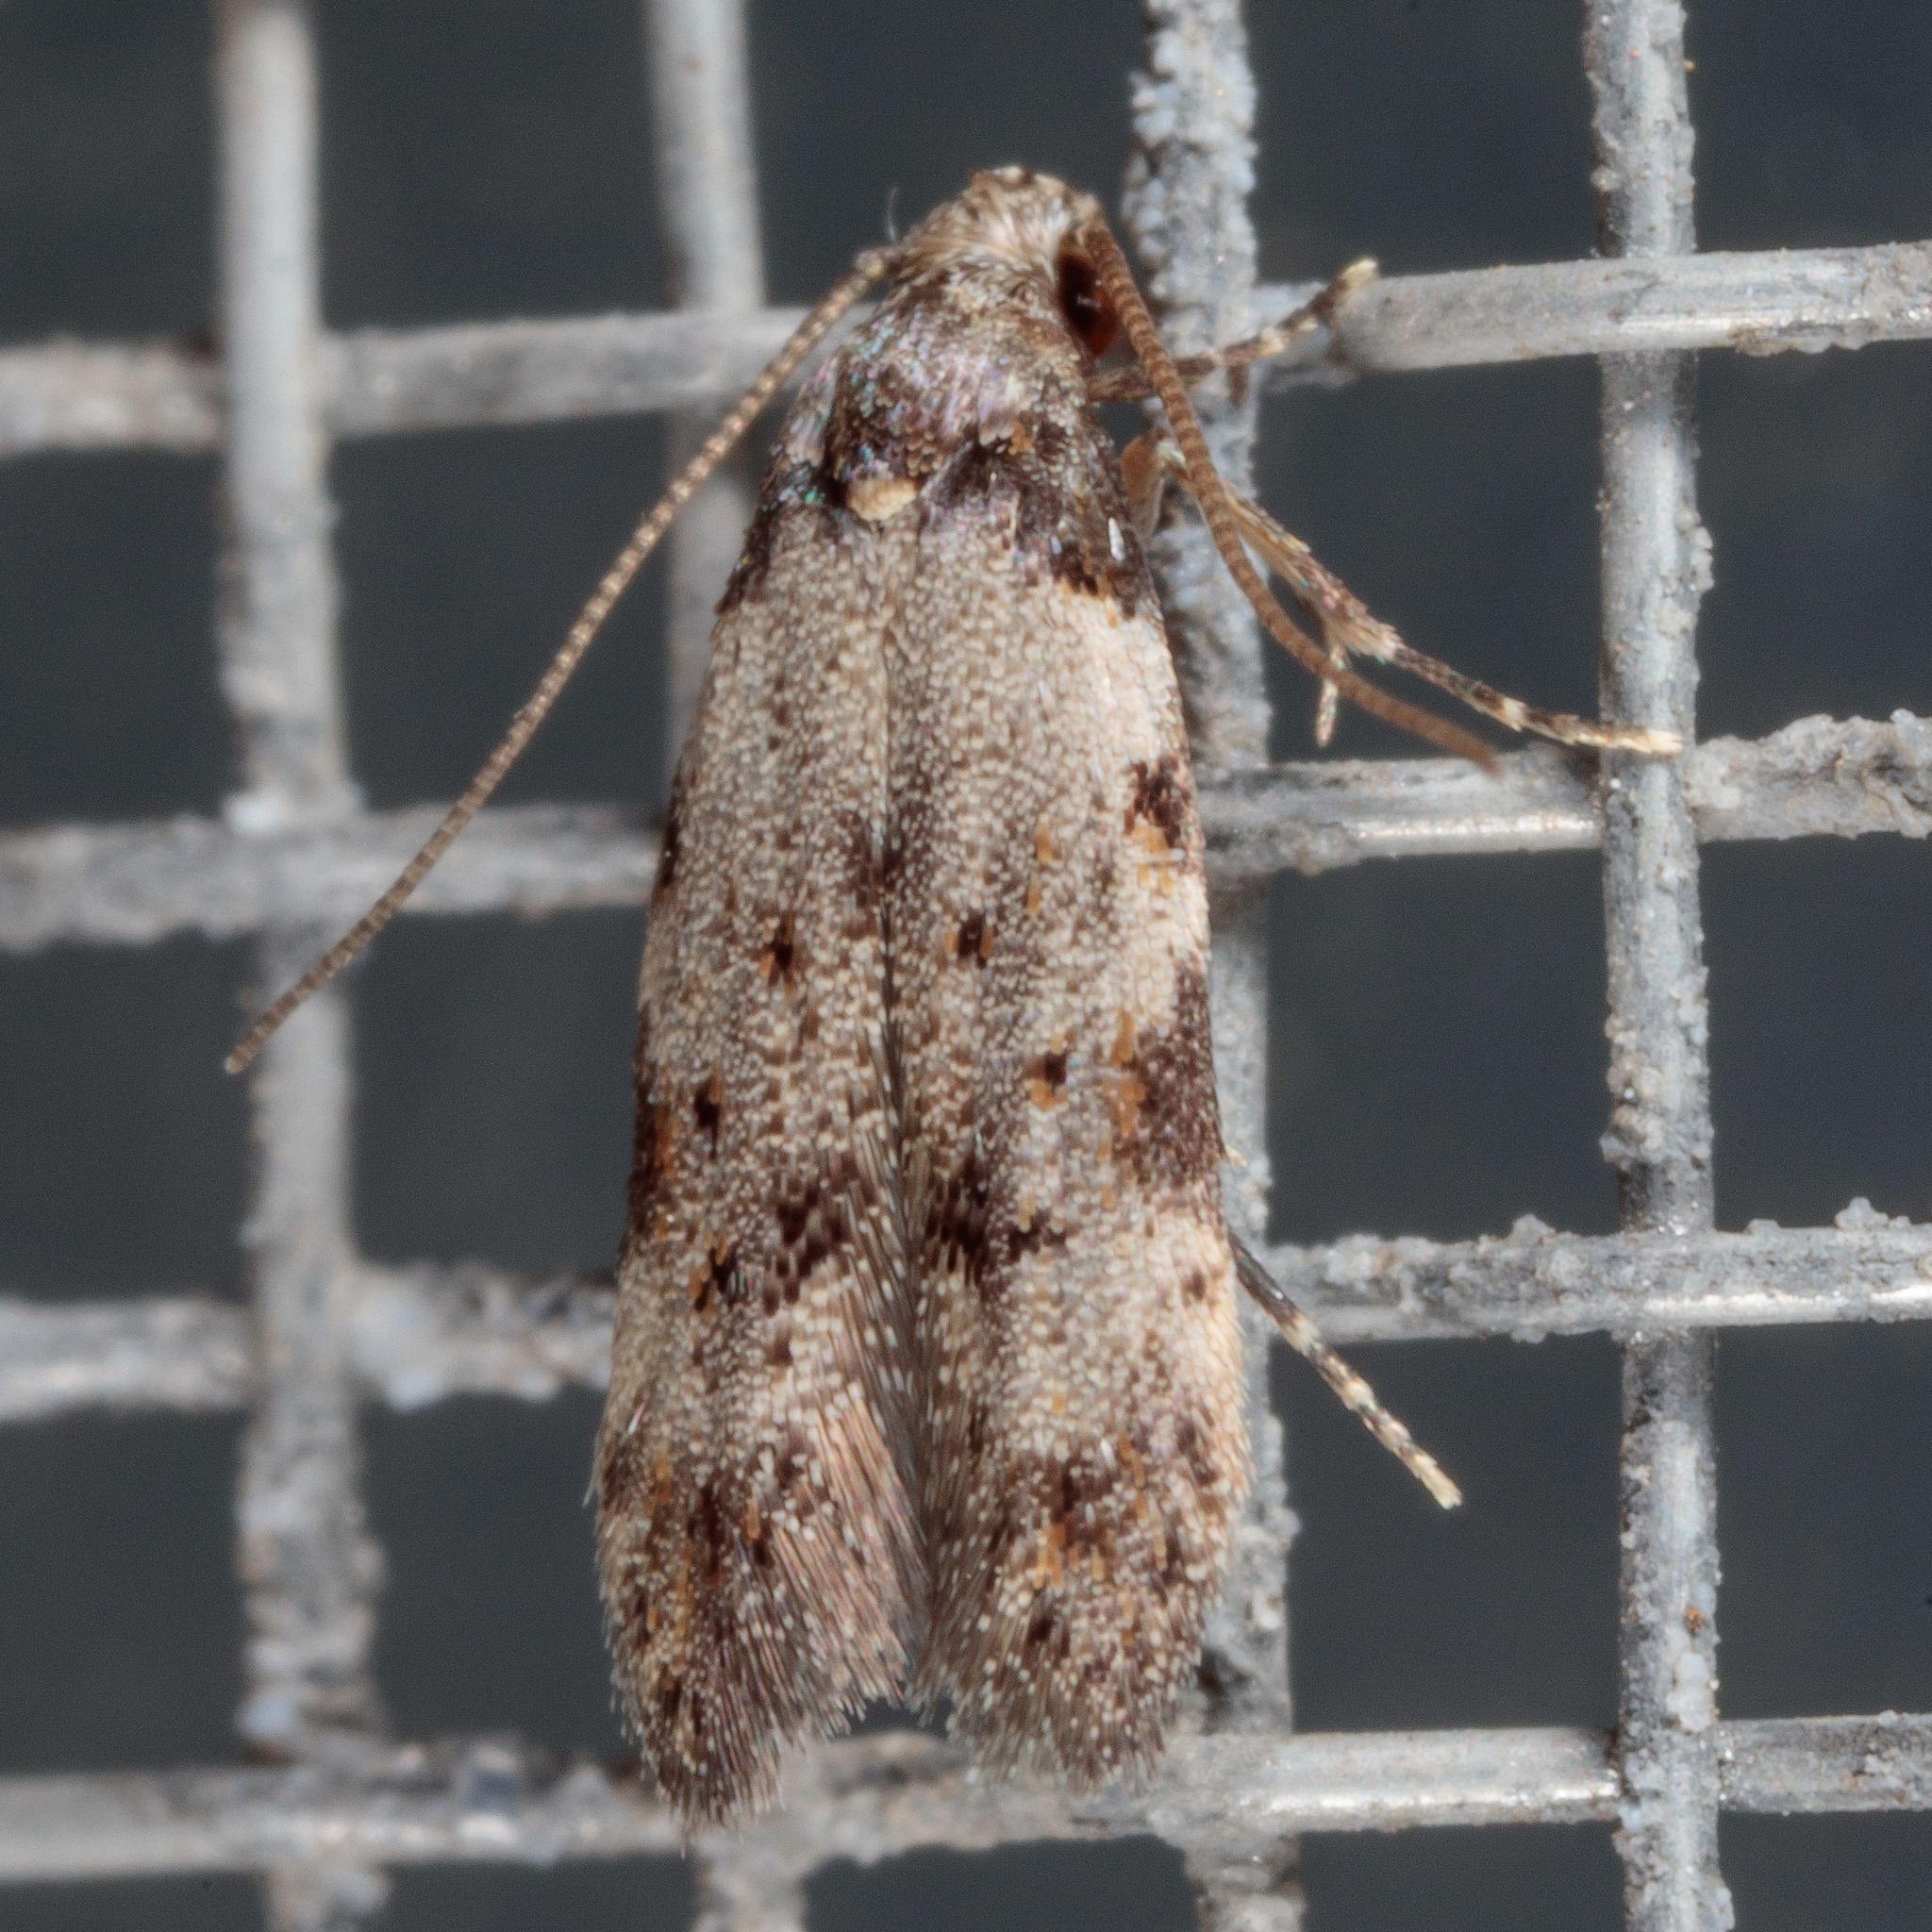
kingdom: Animalia
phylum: Arthropoda
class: Insecta
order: Lepidoptera
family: Autostichidae
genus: Taygete
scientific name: Taygete attributella
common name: Triangle-marked twirler moth
